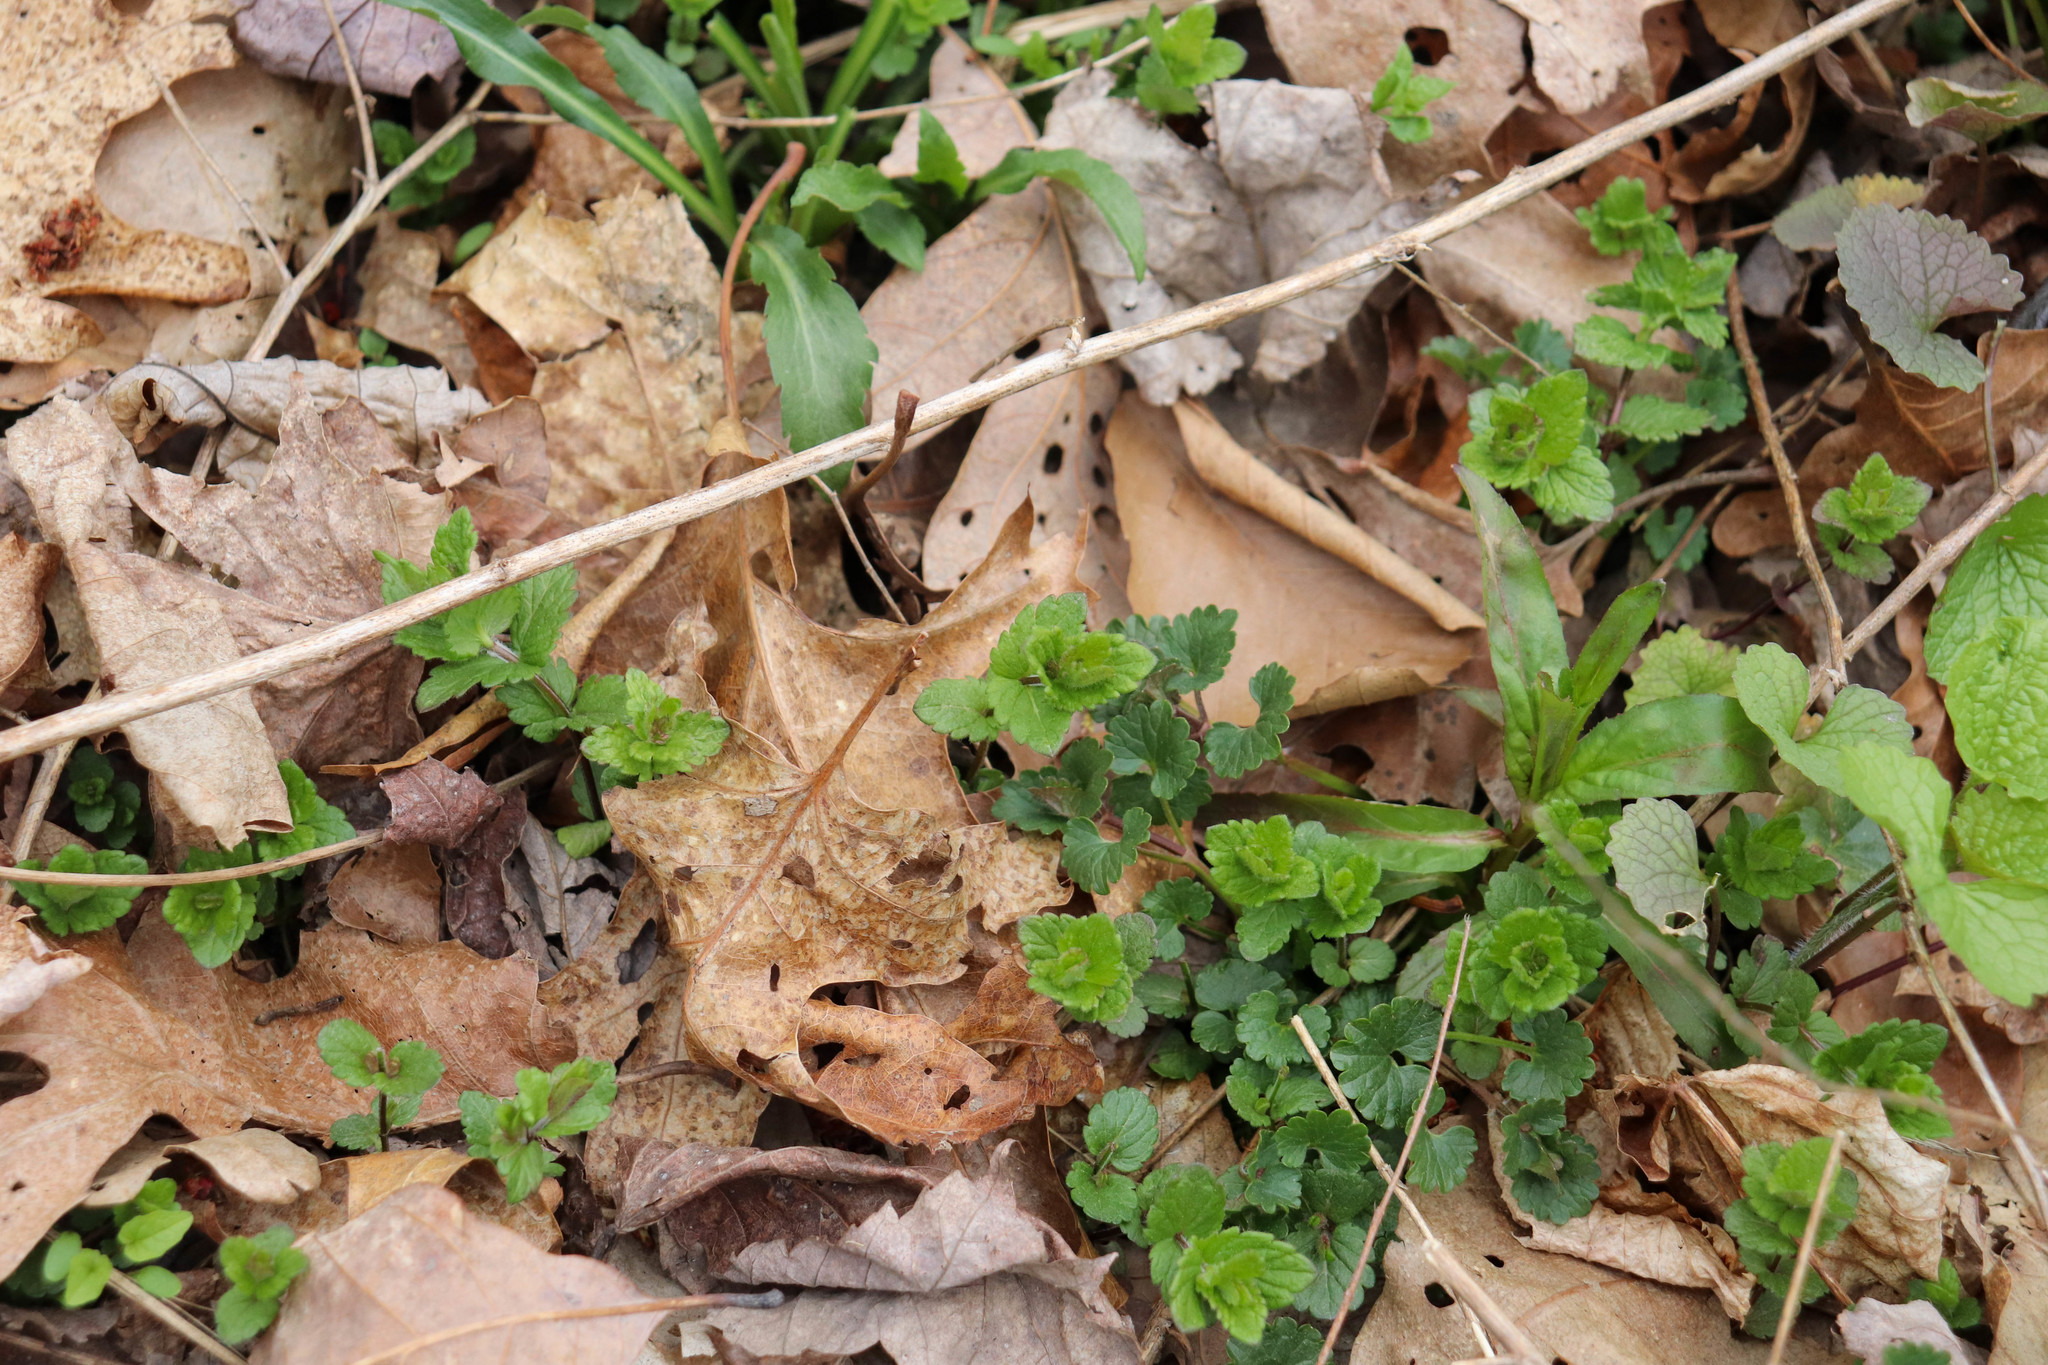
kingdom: Plantae
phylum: Tracheophyta
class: Magnoliopsida
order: Lamiales
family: Plantaginaceae
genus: Veronica
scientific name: Veronica chamaedrys
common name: Germander speedwell
